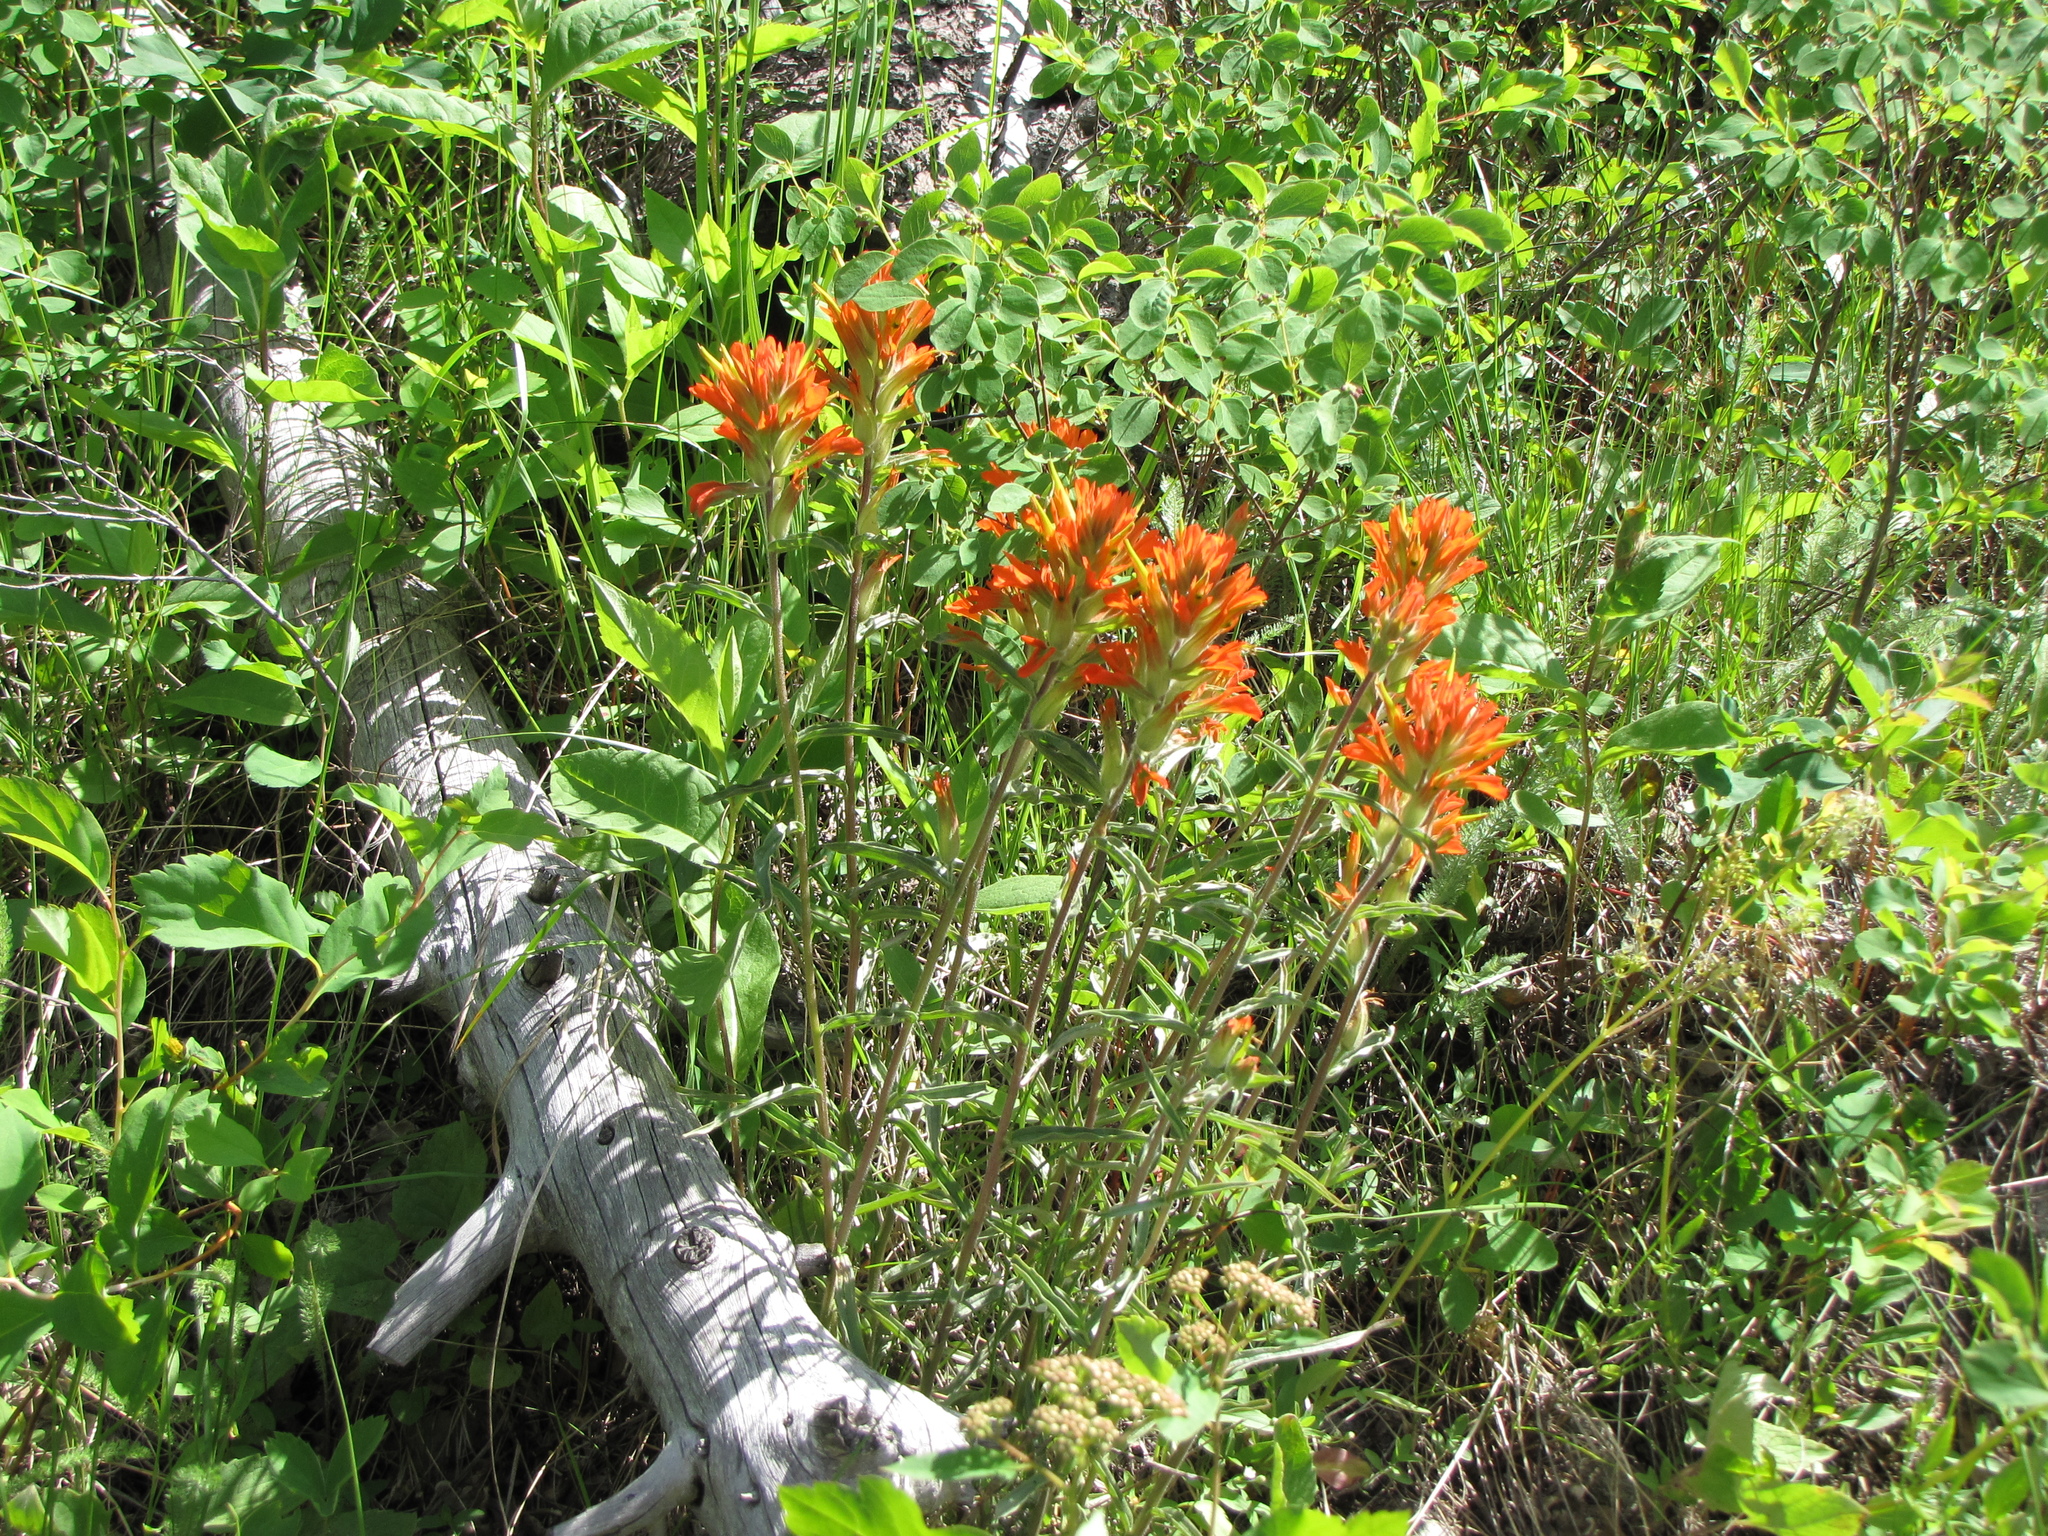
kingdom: Plantae
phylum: Tracheophyta
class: Magnoliopsida
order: Lamiales
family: Orobanchaceae
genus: Castilleja
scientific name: Castilleja miniata
